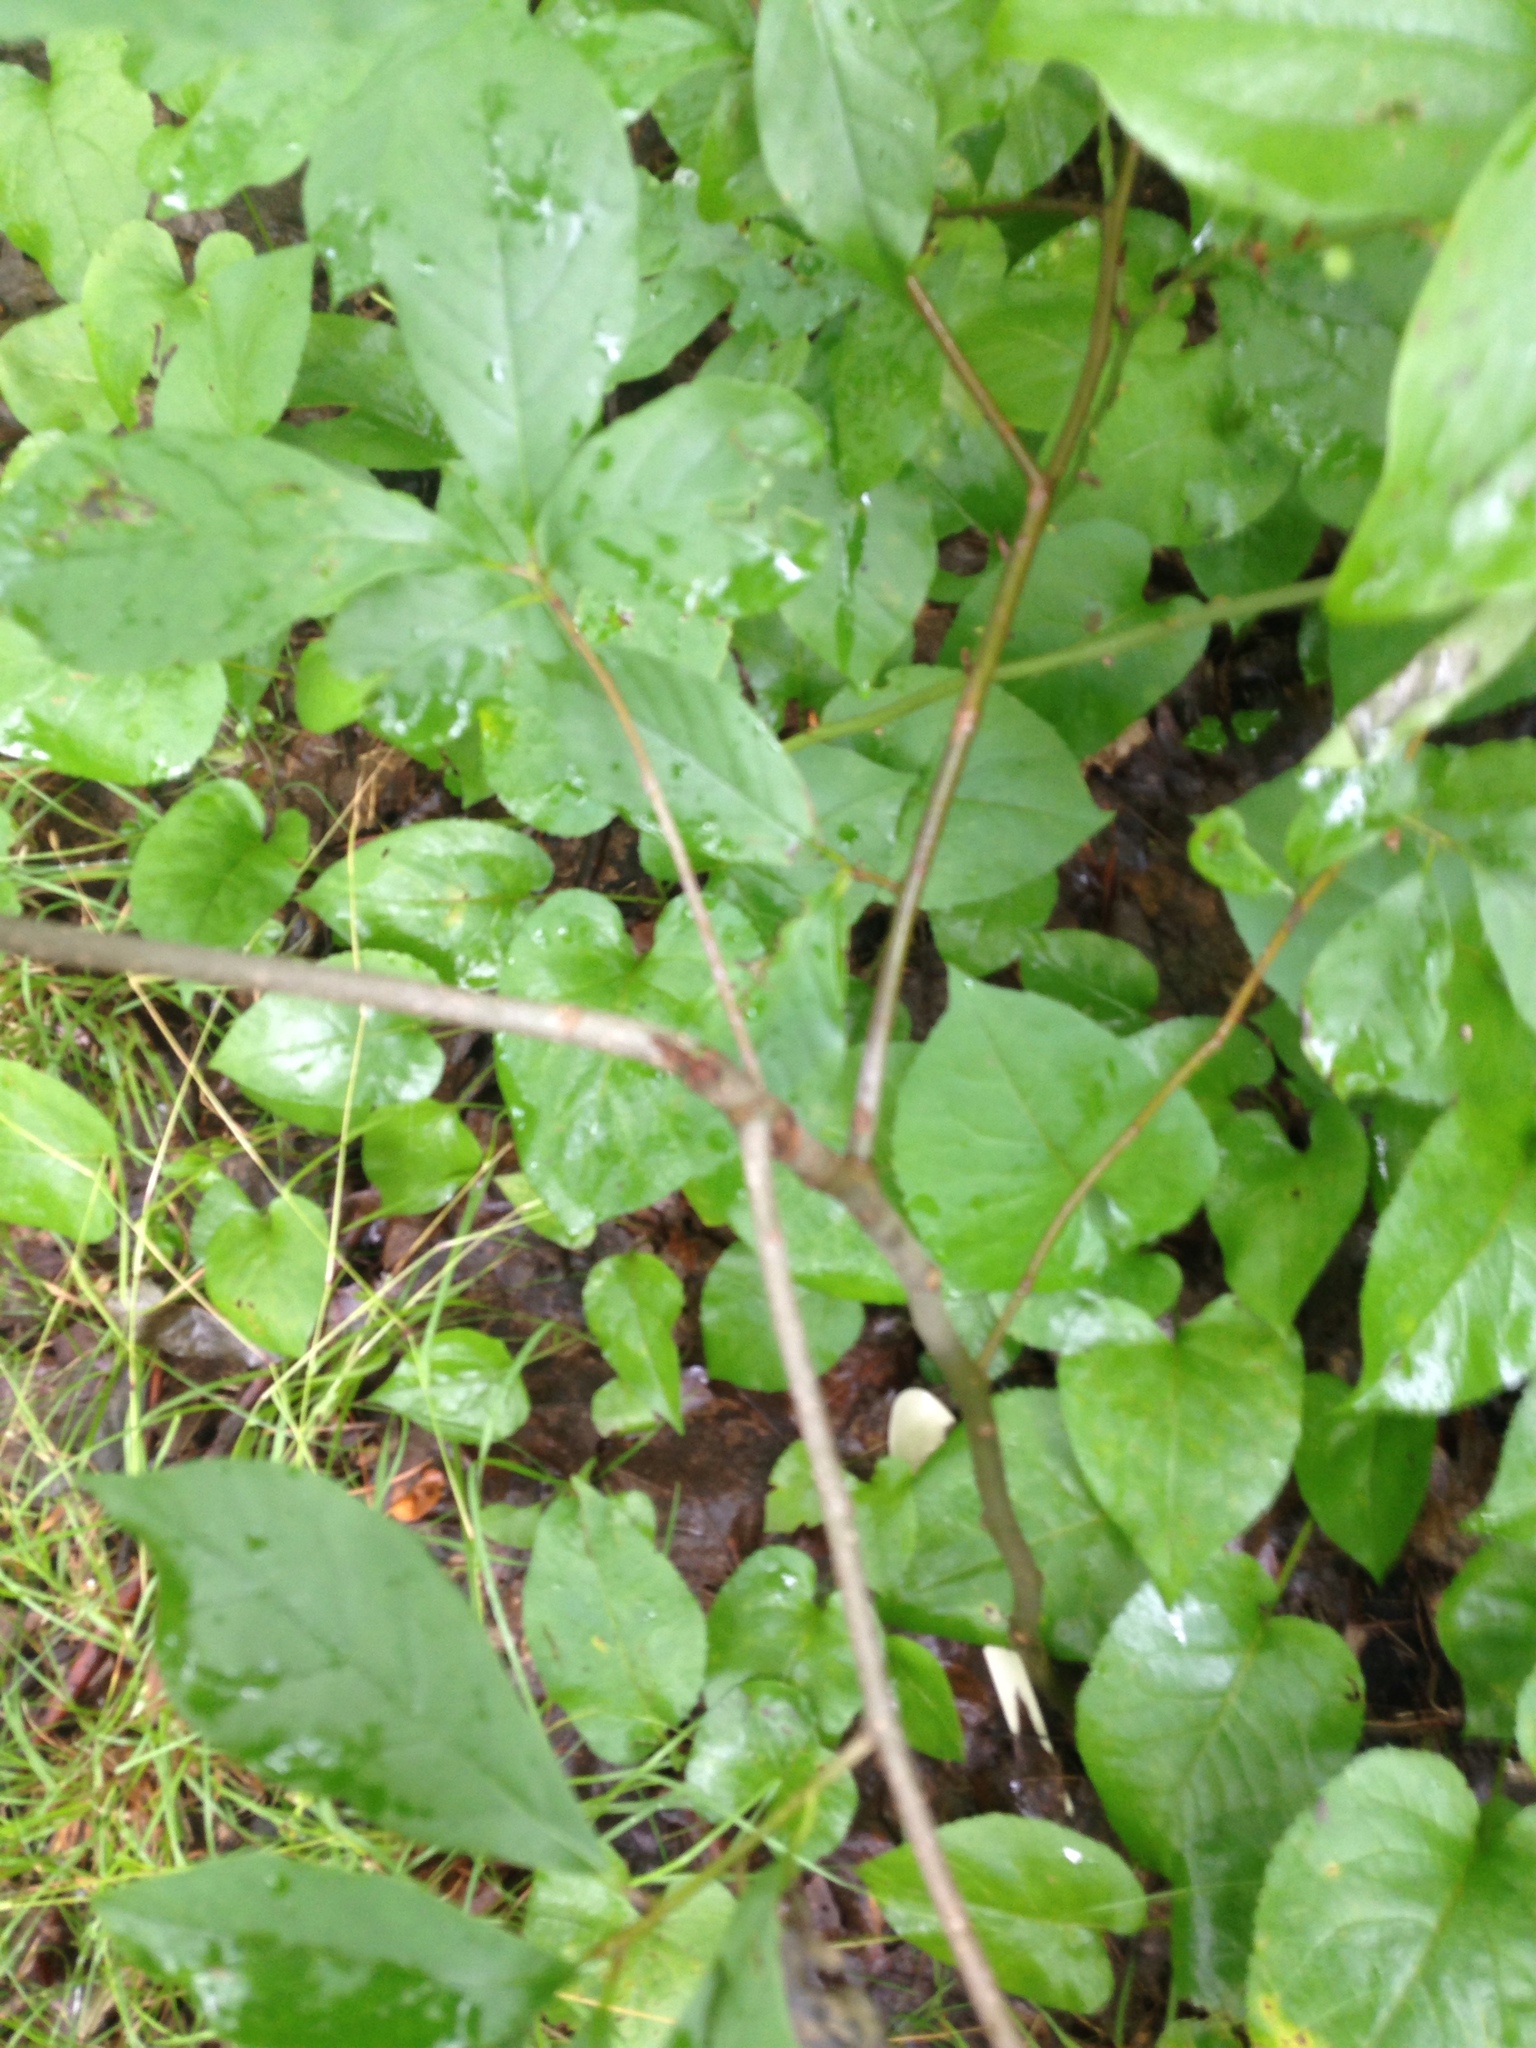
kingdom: Plantae
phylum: Tracheophyta
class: Magnoliopsida
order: Cornales
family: Nyssaceae
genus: Nyssa
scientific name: Nyssa sylvatica
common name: Black tupelo
